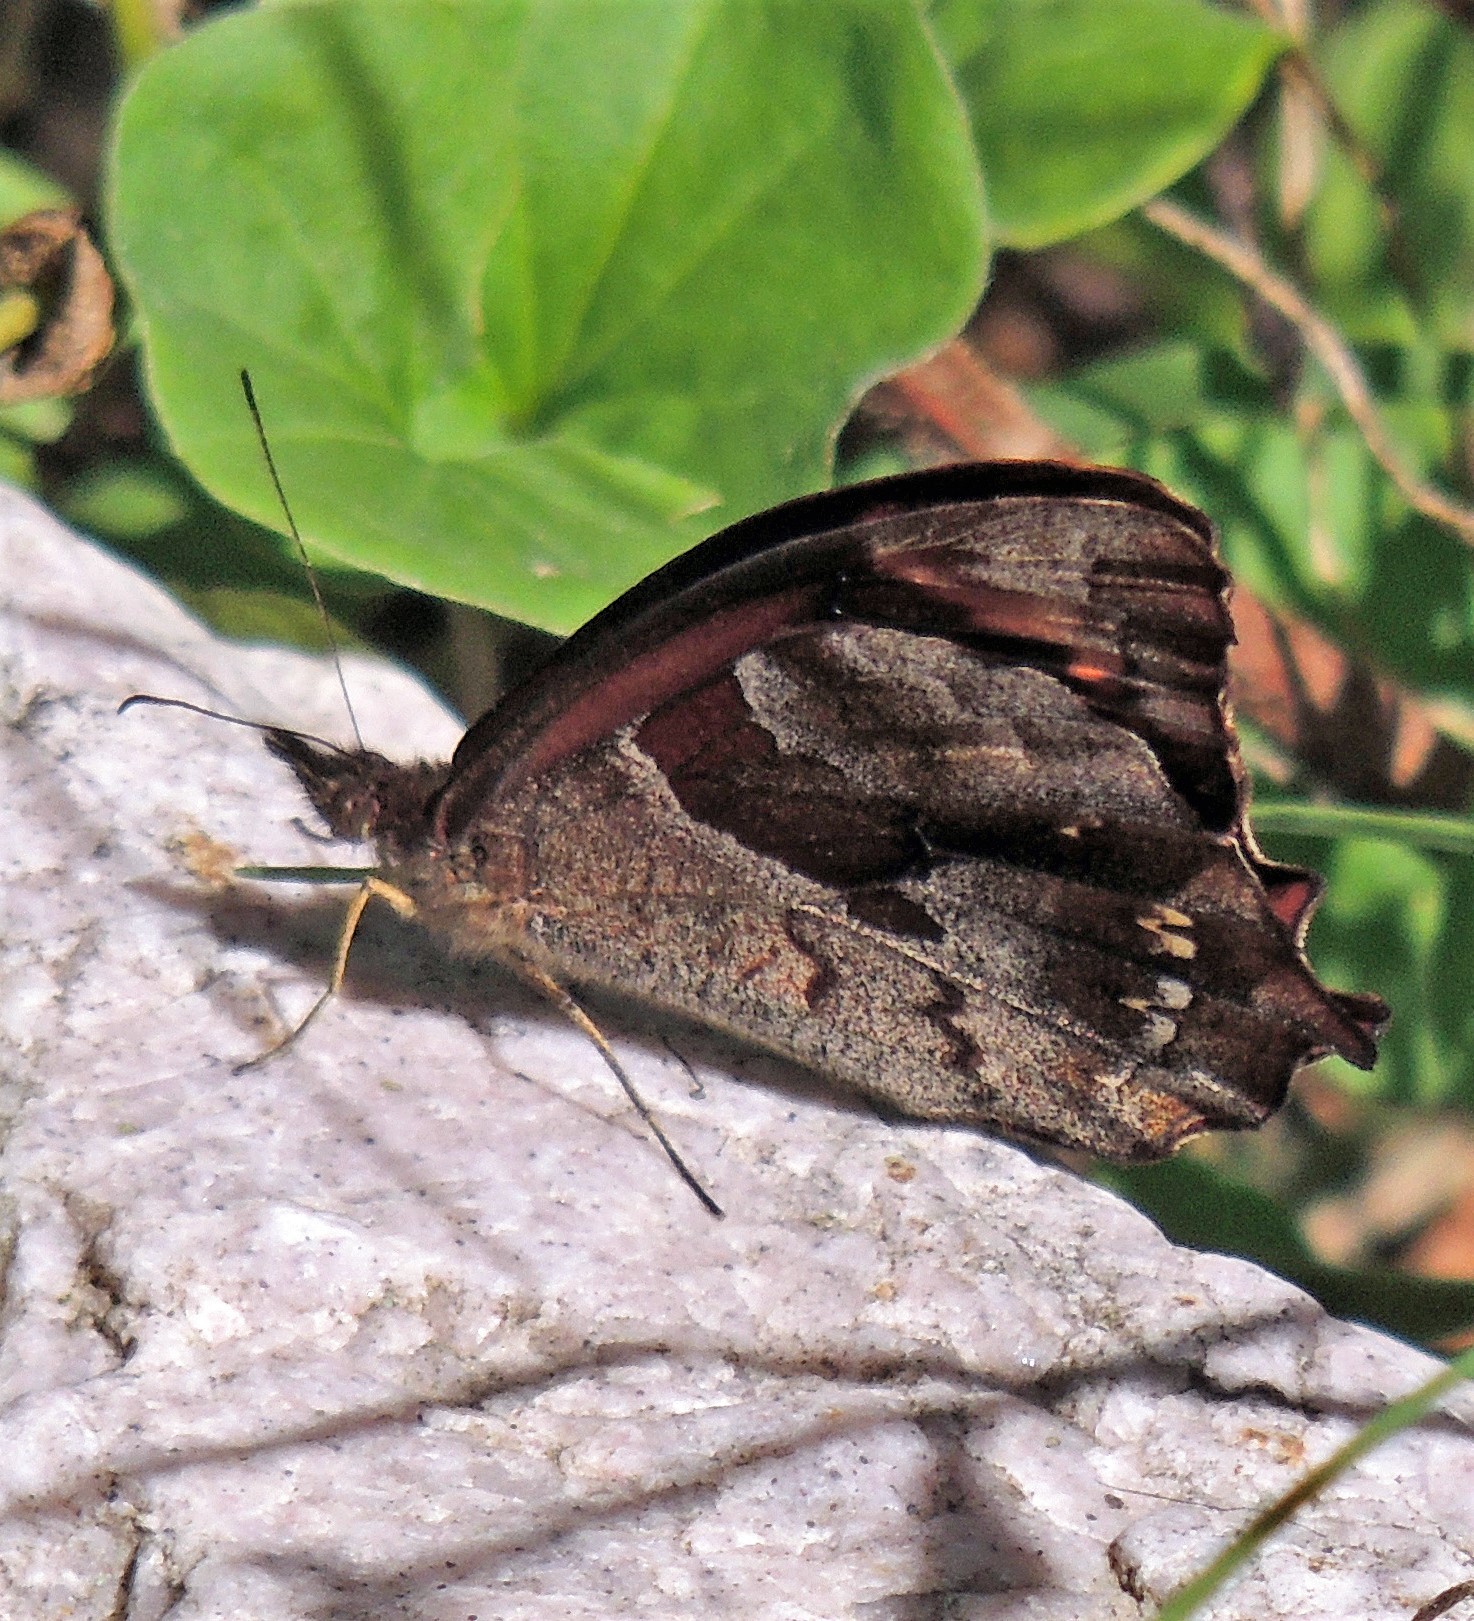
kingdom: Animalia
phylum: Arthropoda
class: Insecta
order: Lepidoptera
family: Nymphalidae
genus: Lasiophila
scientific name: Lasiophila orbifera
